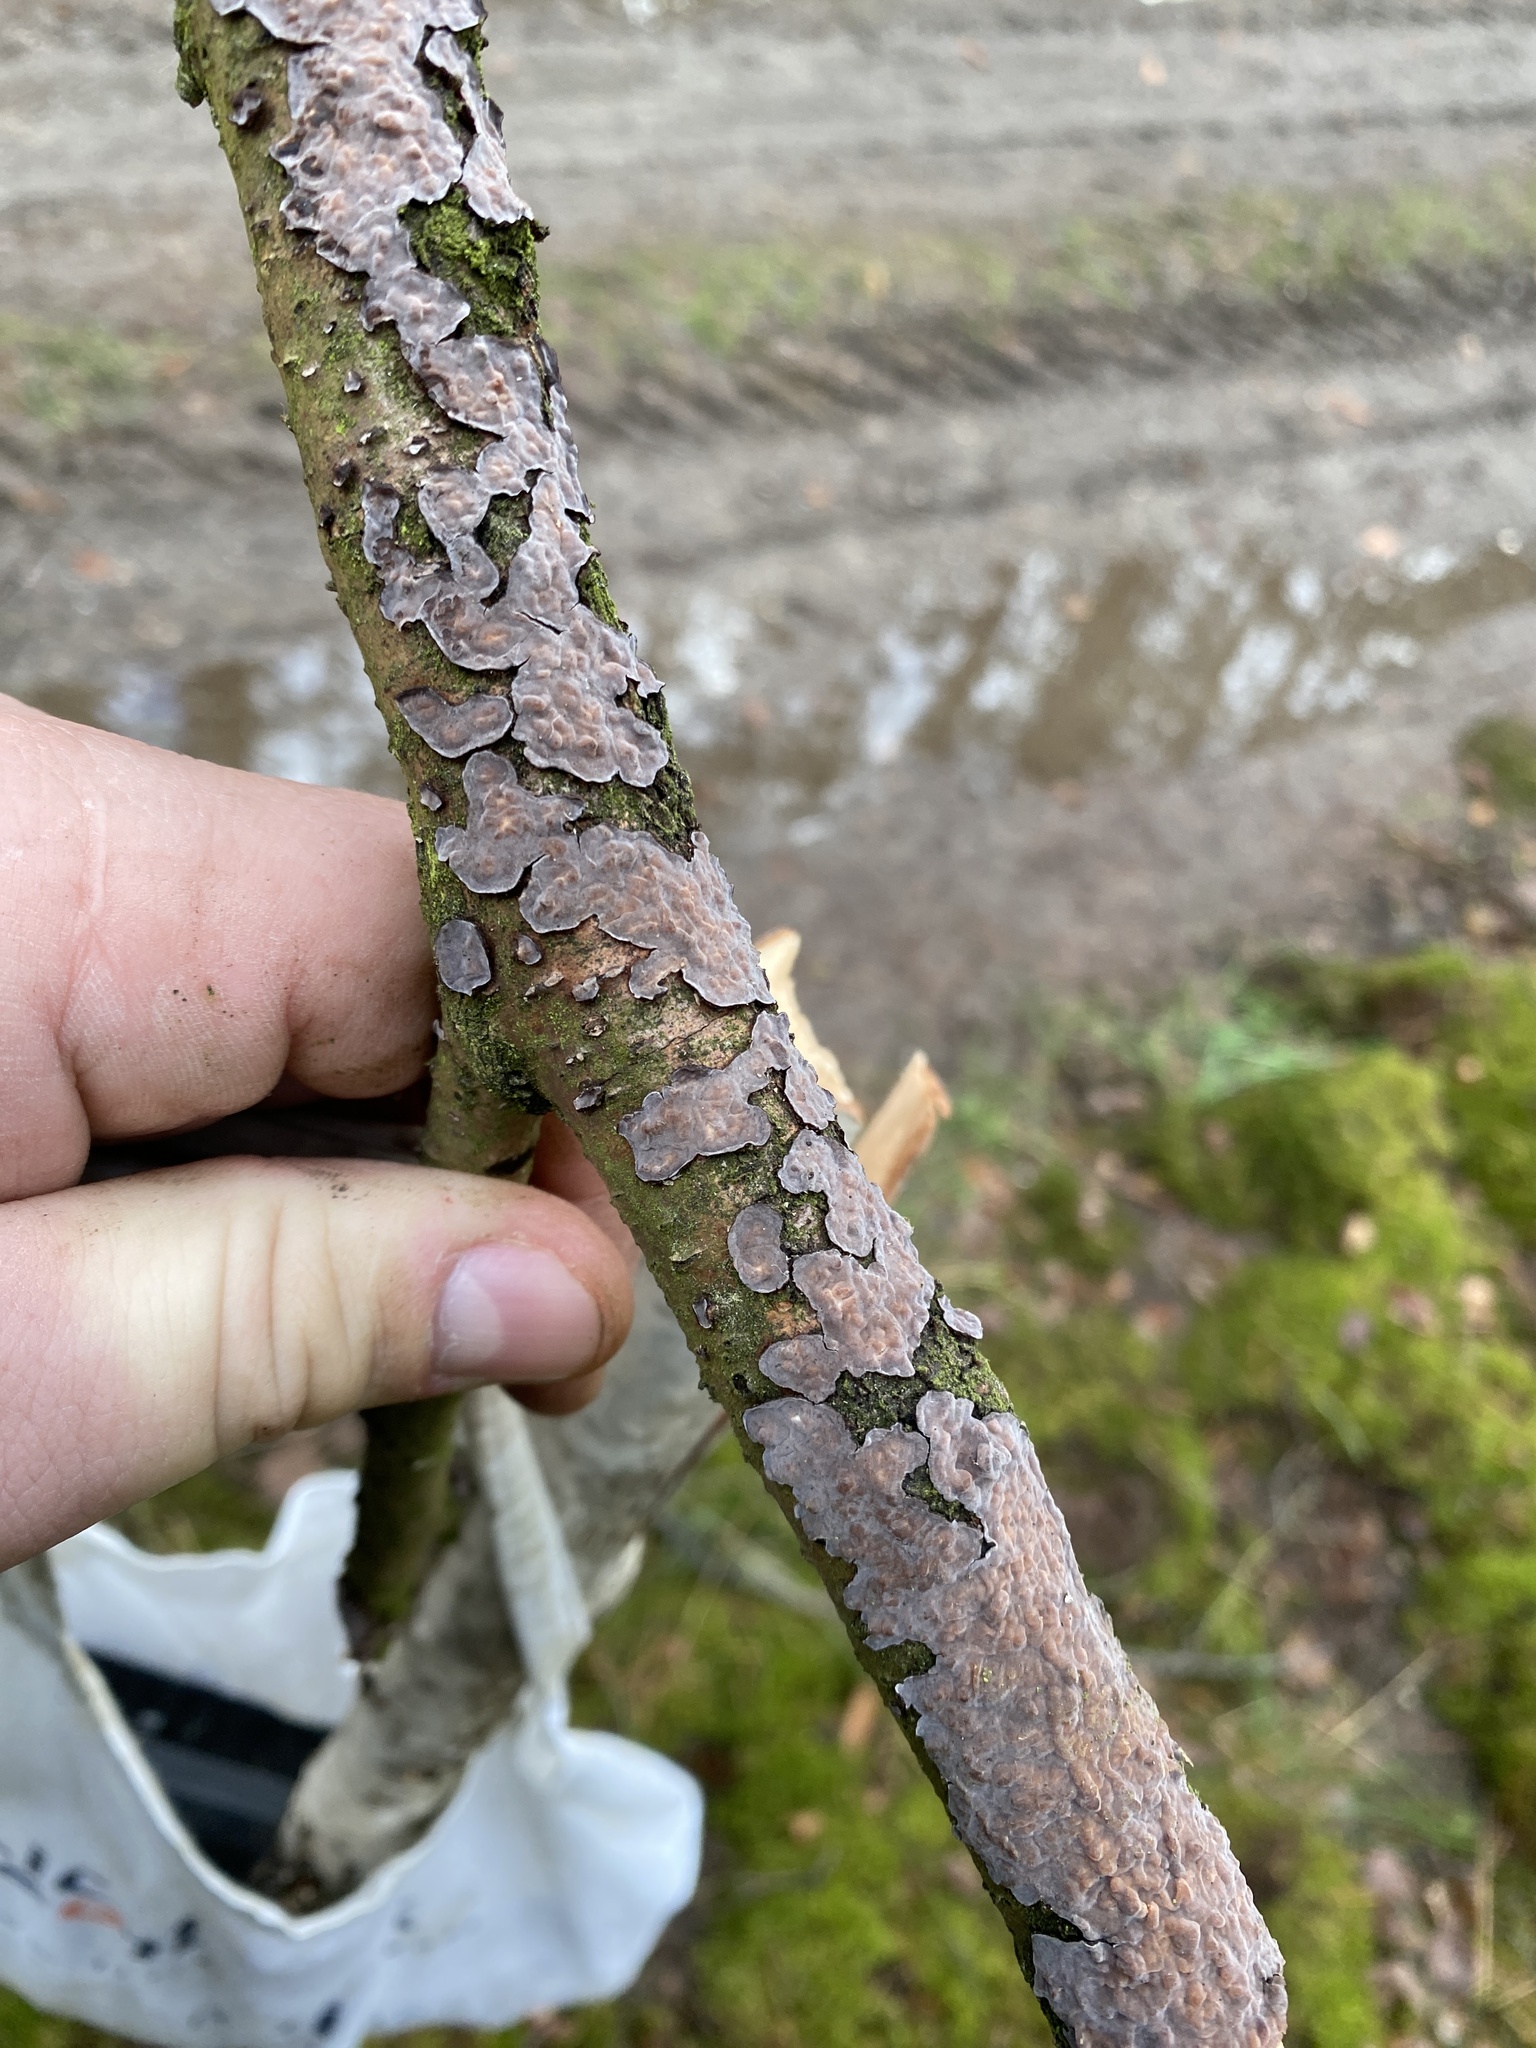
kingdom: Fungi
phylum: Basidiomycota
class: Agaricomycetes
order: Russulales
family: Peniophoraceae
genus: Peniophora
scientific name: Peniophora quercina
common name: Oak crust
